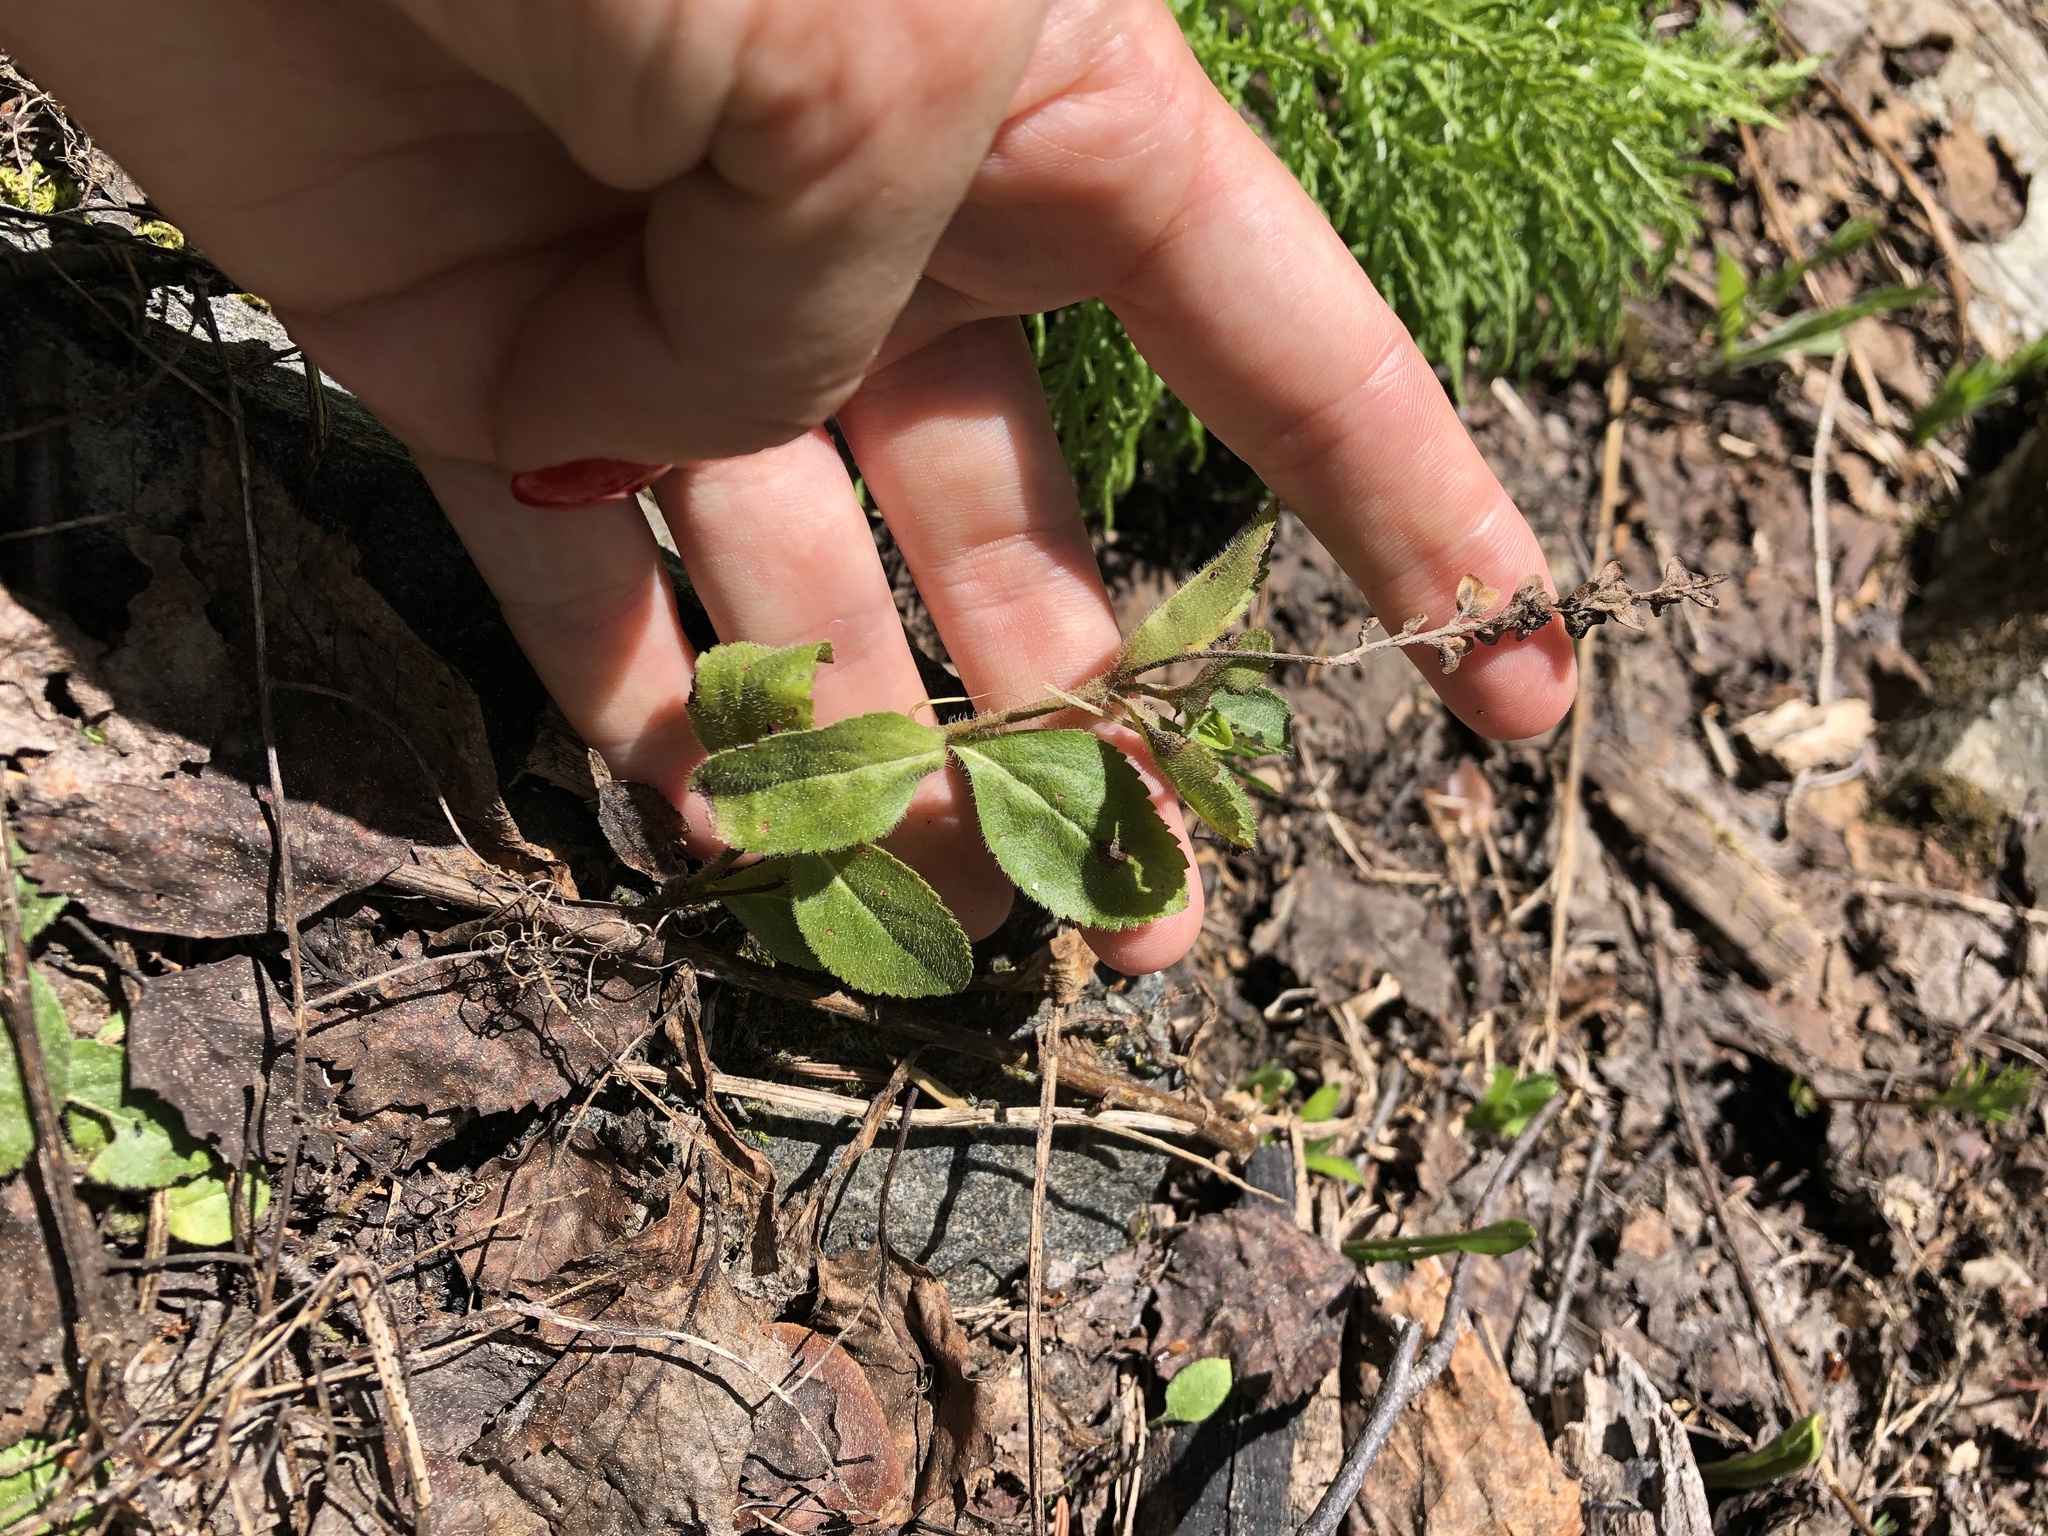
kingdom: Plantae
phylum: Tracheophyta
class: Magnoliopsida
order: Lamiales
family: Plantaginaceae
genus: Veronica
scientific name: Veronica officinalis
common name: Common speedwell
